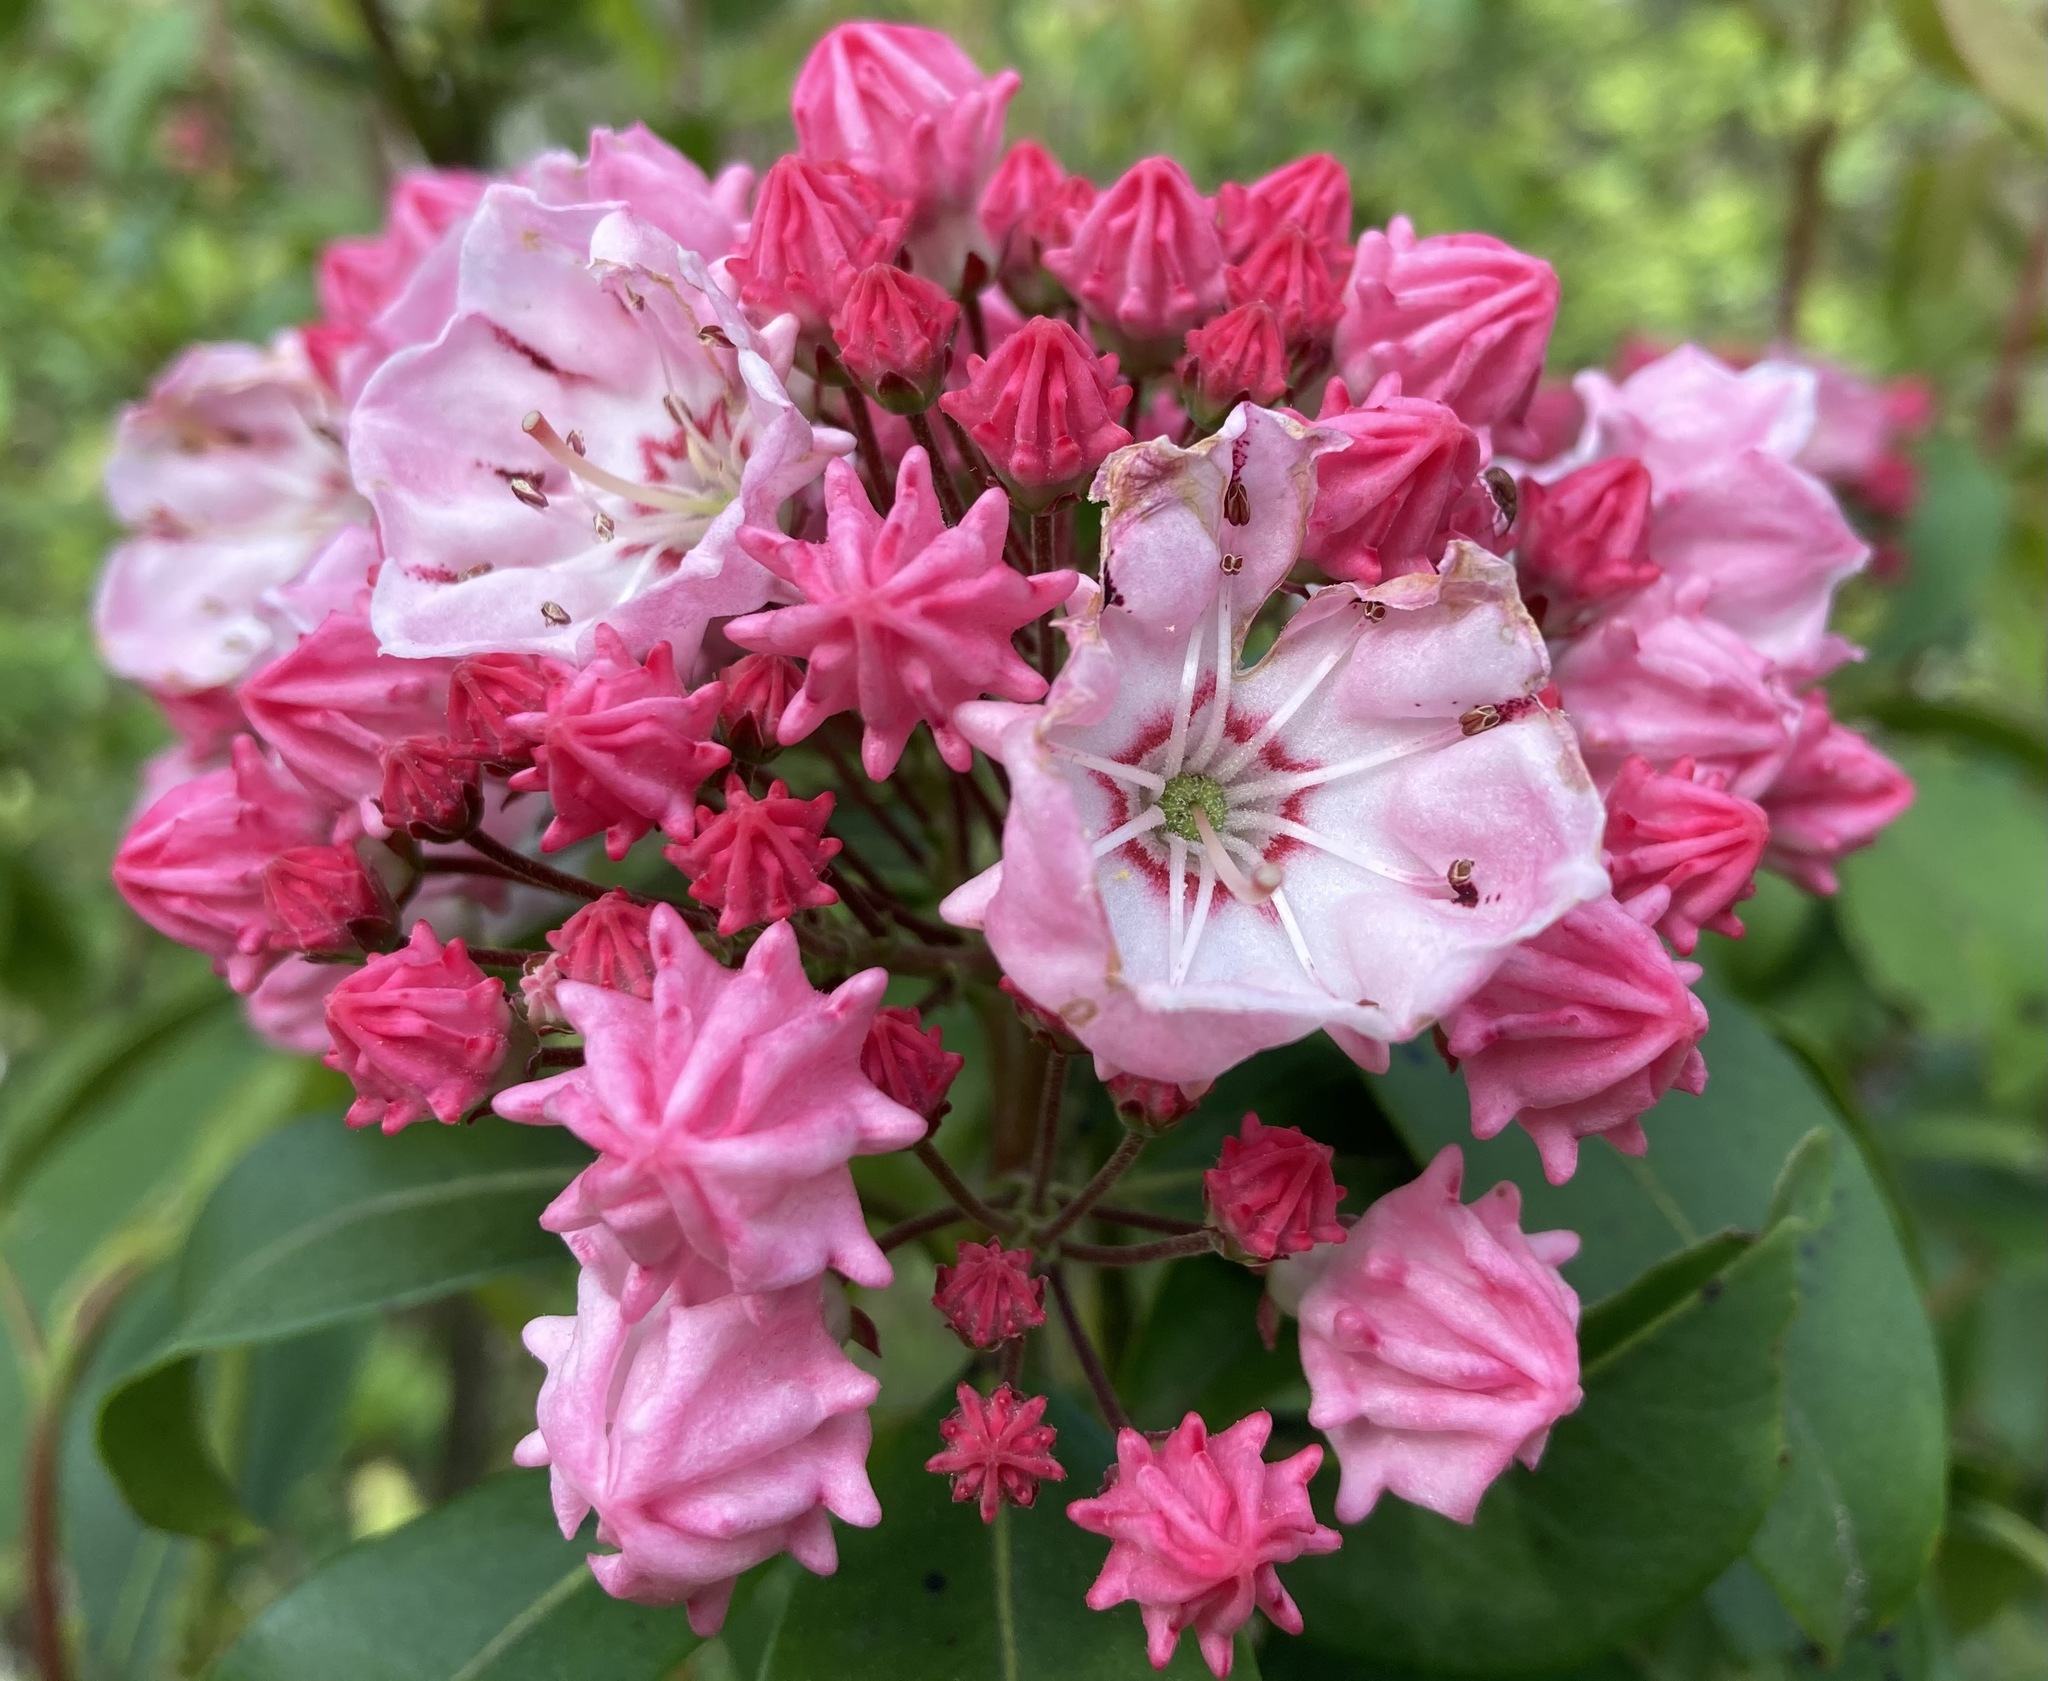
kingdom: Plantae
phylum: Tracheophyta
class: Magnoliopsida
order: Ericales
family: Ericaceae
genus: Kalmia
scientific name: Kalmia latifolia
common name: Mountain-laurel
